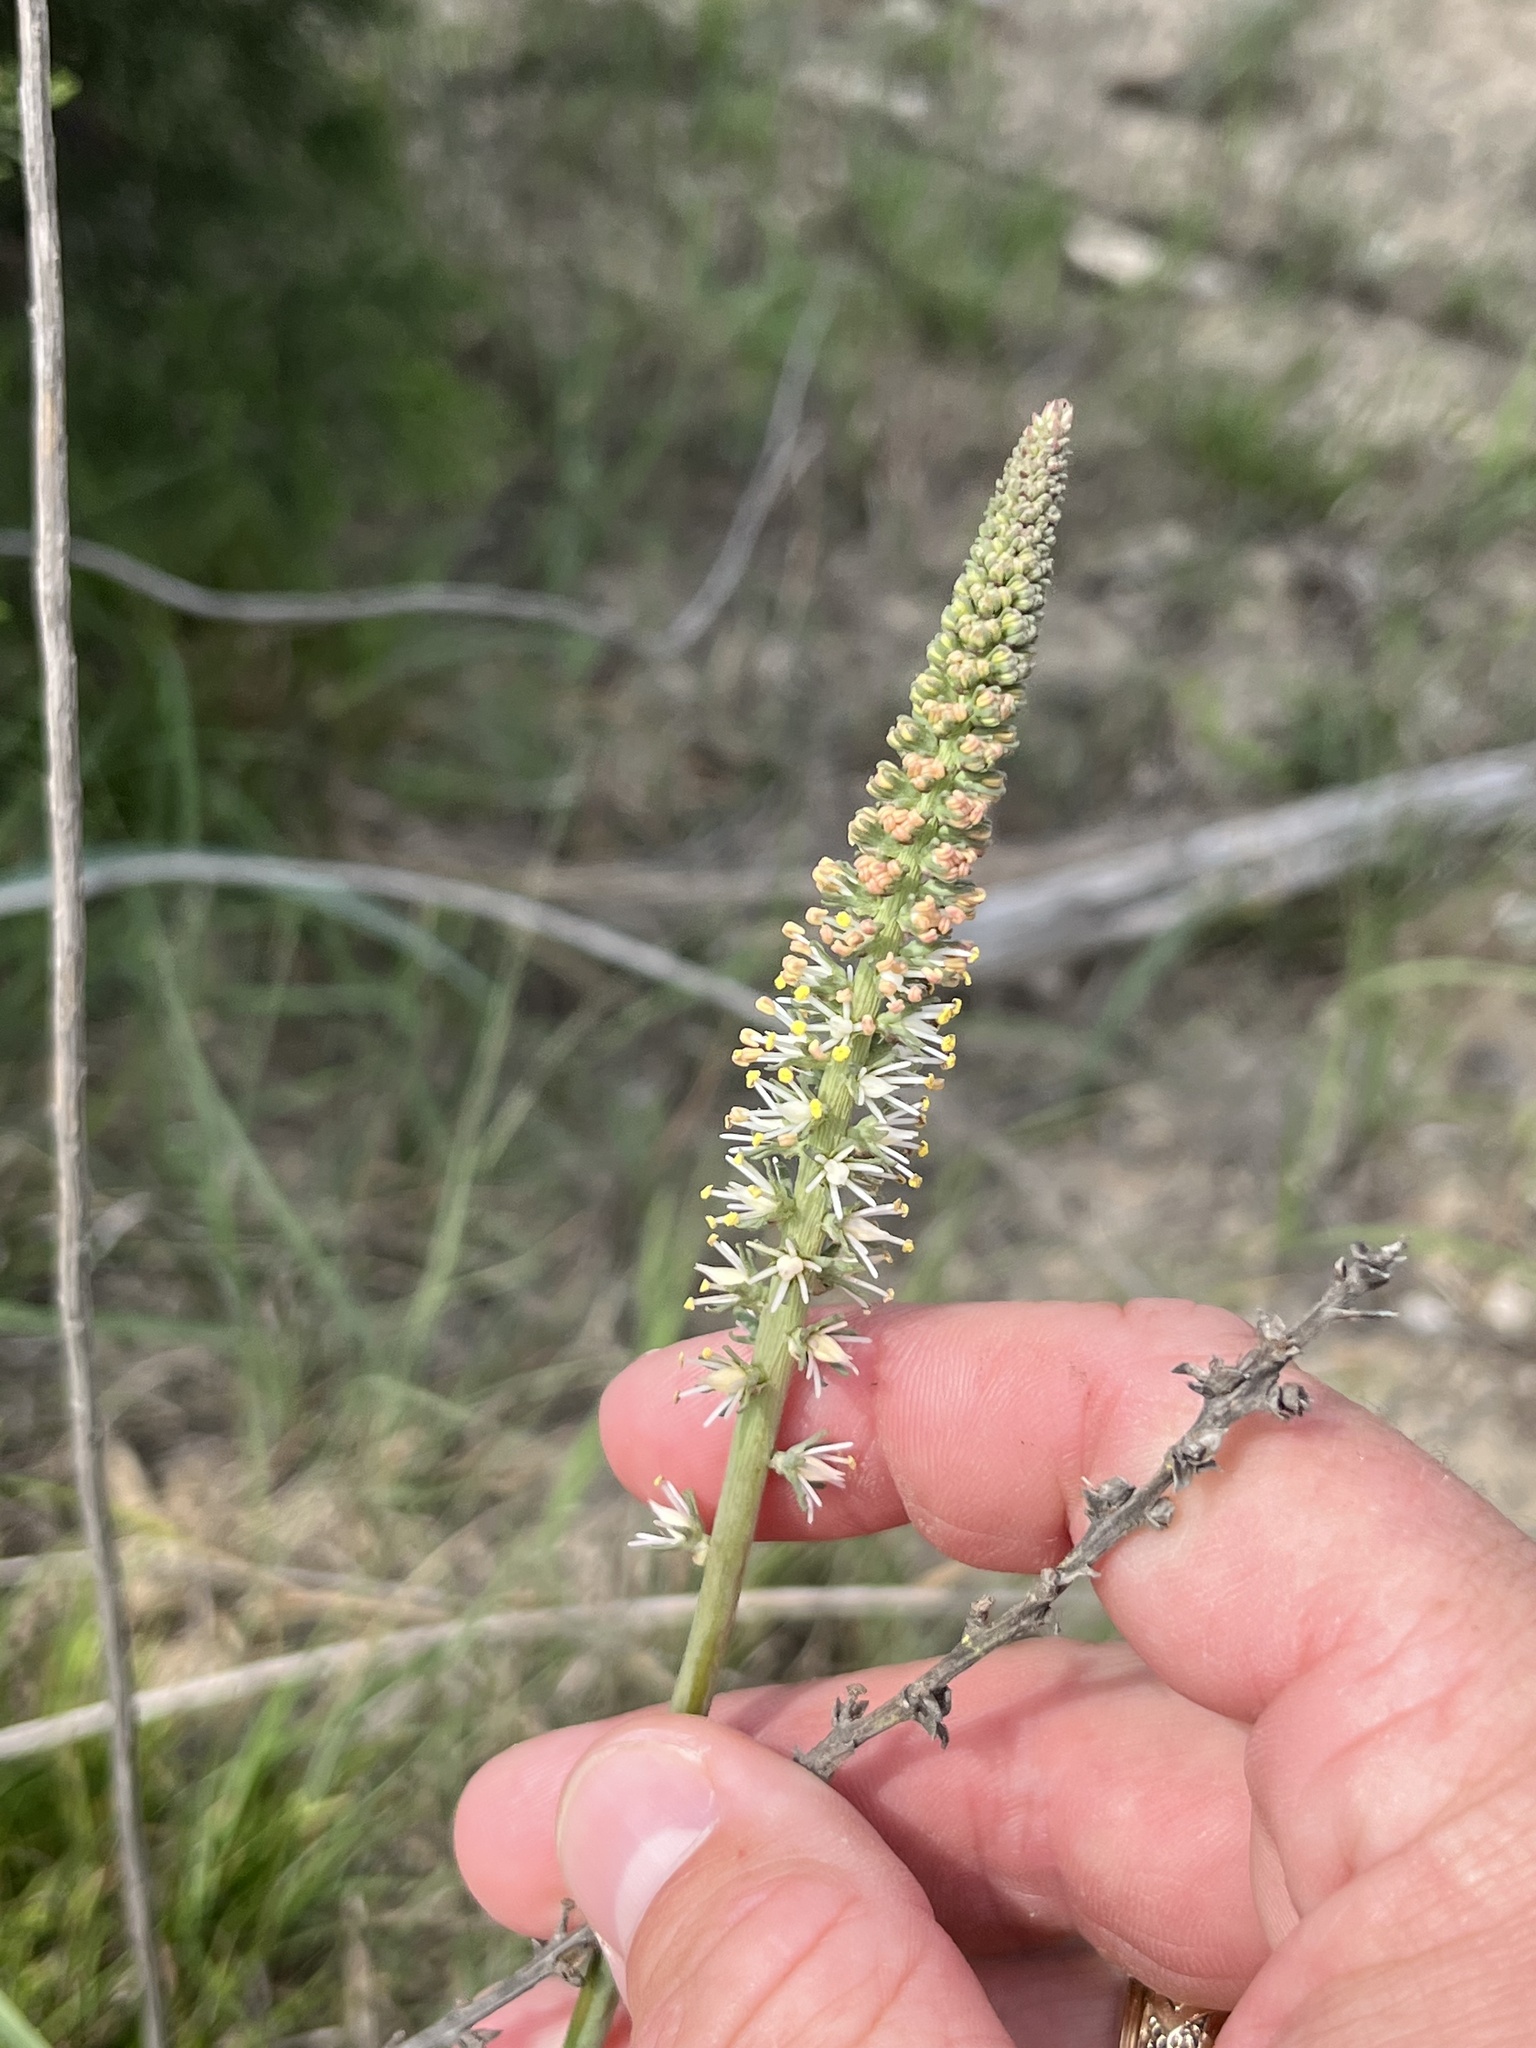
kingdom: Plantae
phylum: Tracheophyta
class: Liliopsida
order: Liliales
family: Melanthiaceae
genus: Schoenocaulon
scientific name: Schoenocaulon texanum
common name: Texas feather-shank
